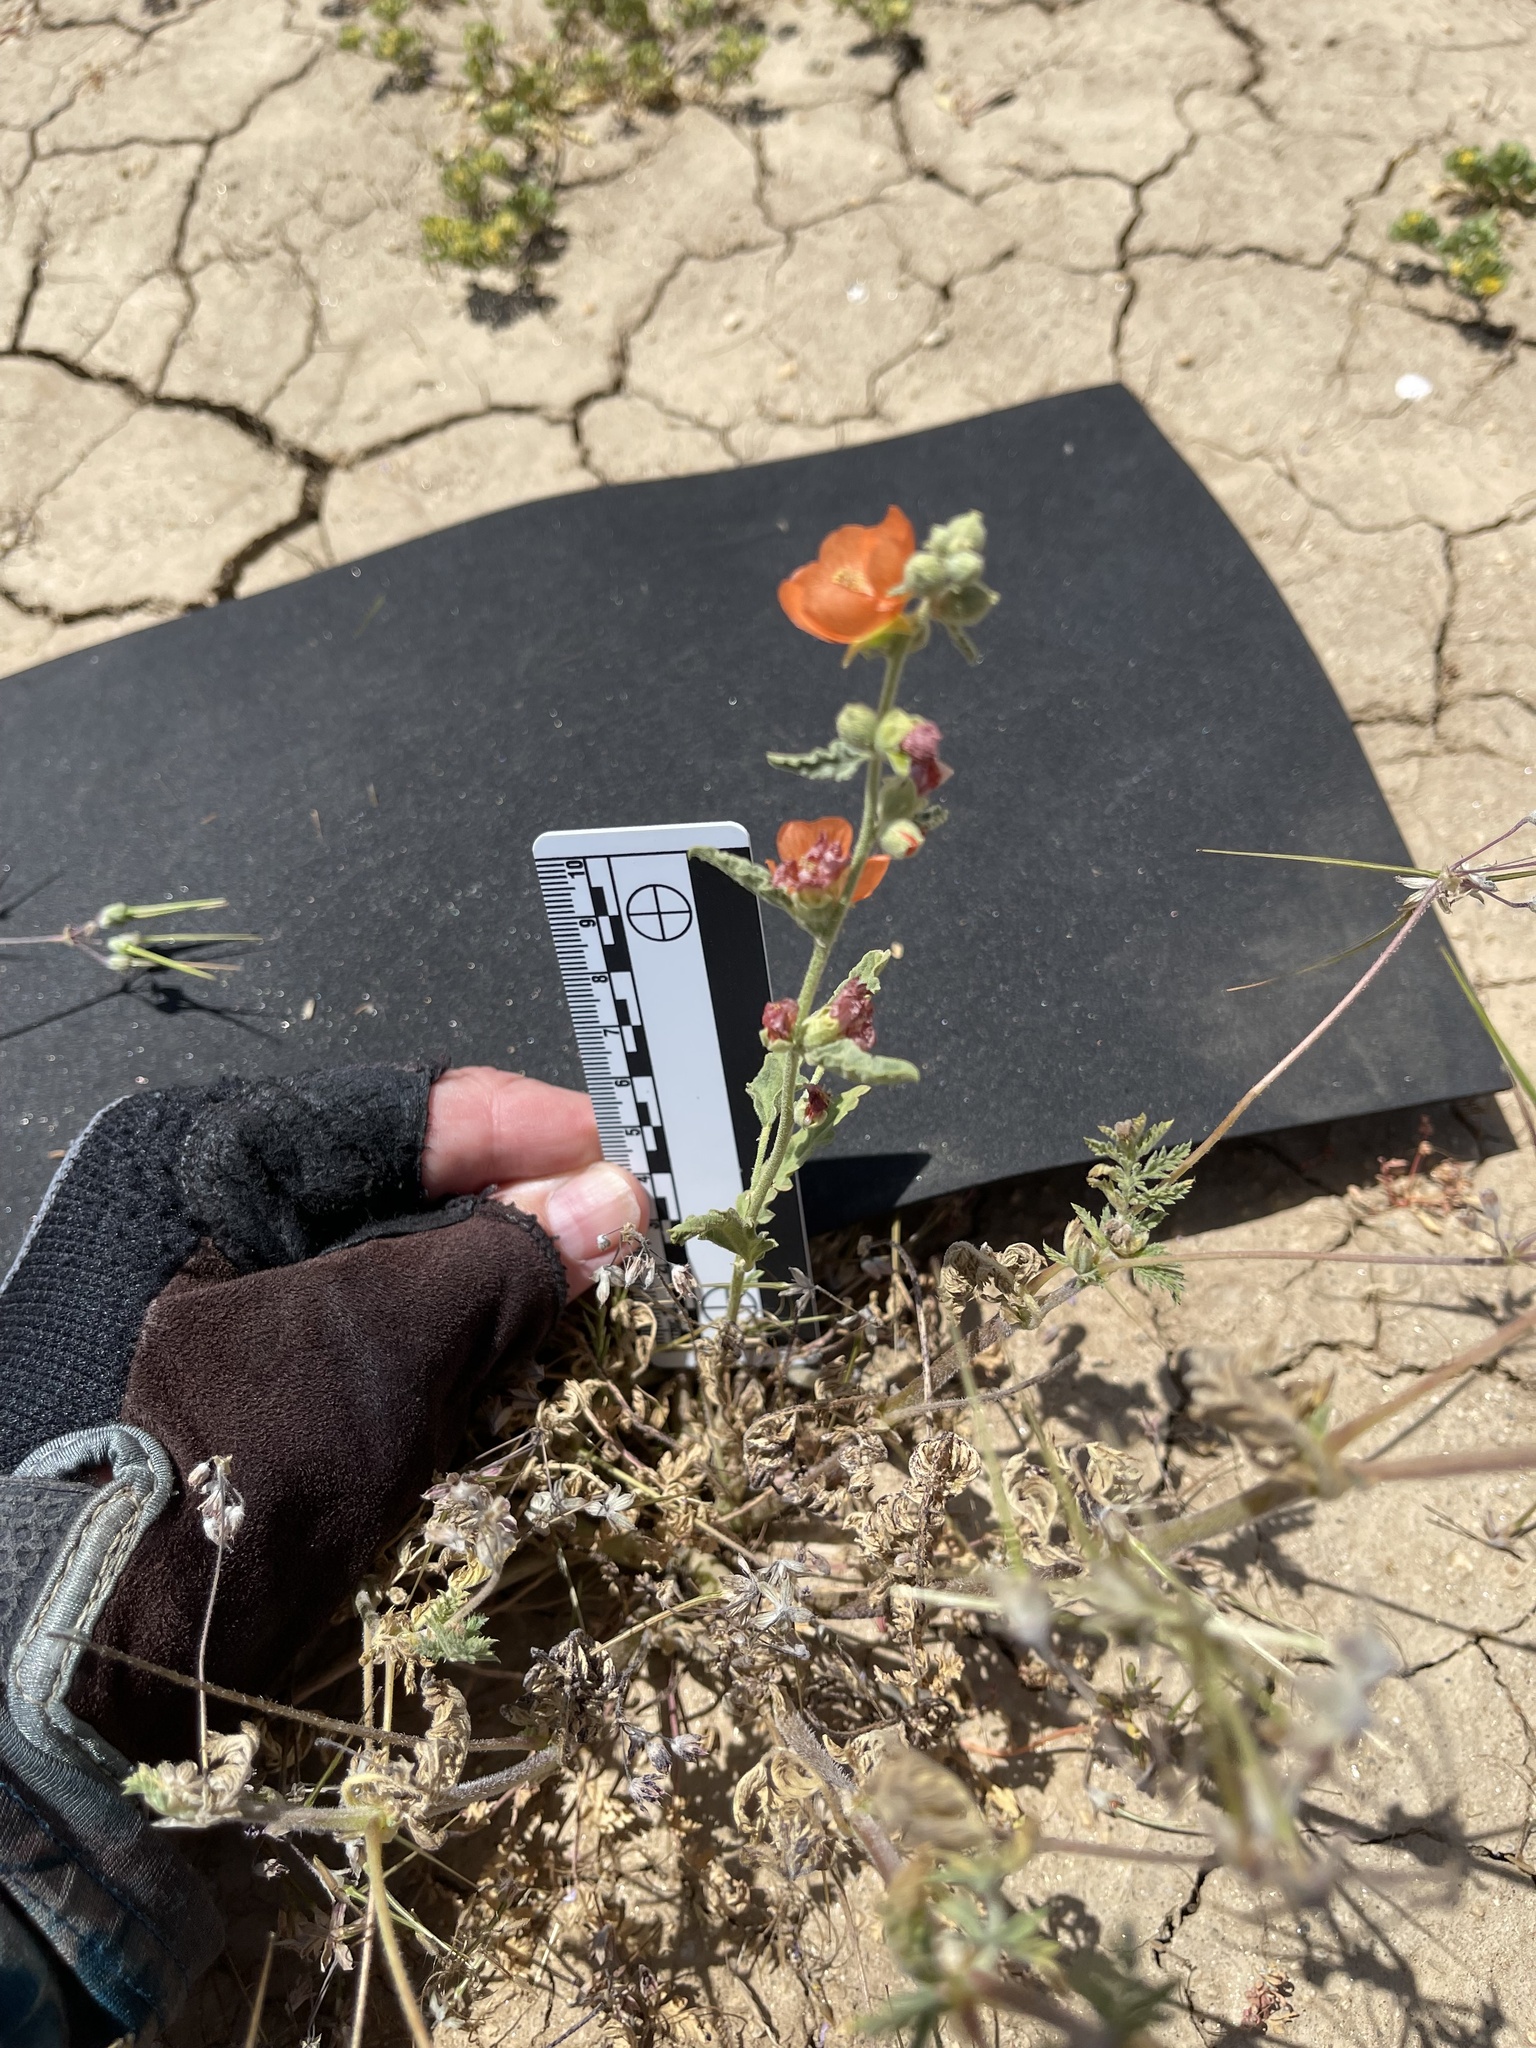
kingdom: Plantae
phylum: Tracheophyta
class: Magnoliopsida
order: Malvales
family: Malvaceae
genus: Sphaeralcea
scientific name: Sphaeralcea angustifolia
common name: Copper globe-mallow
